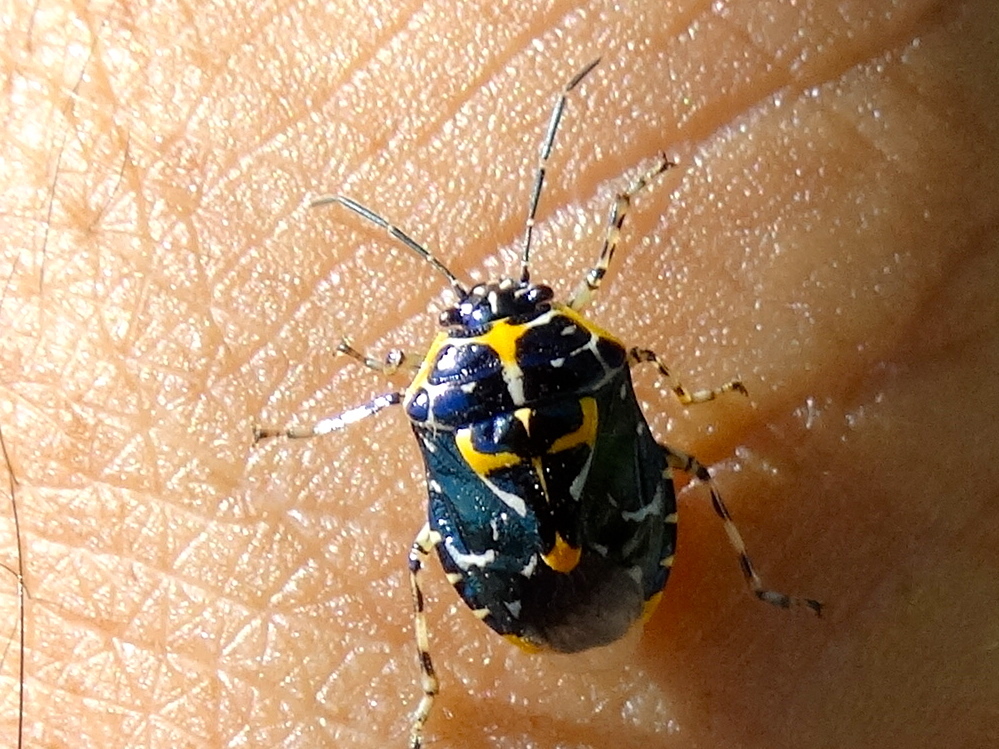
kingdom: Animalia
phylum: Arthropoda
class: Insecta
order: Hemiptera
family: Pentatomidae
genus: Murgantia
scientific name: Murgantia varicolor
